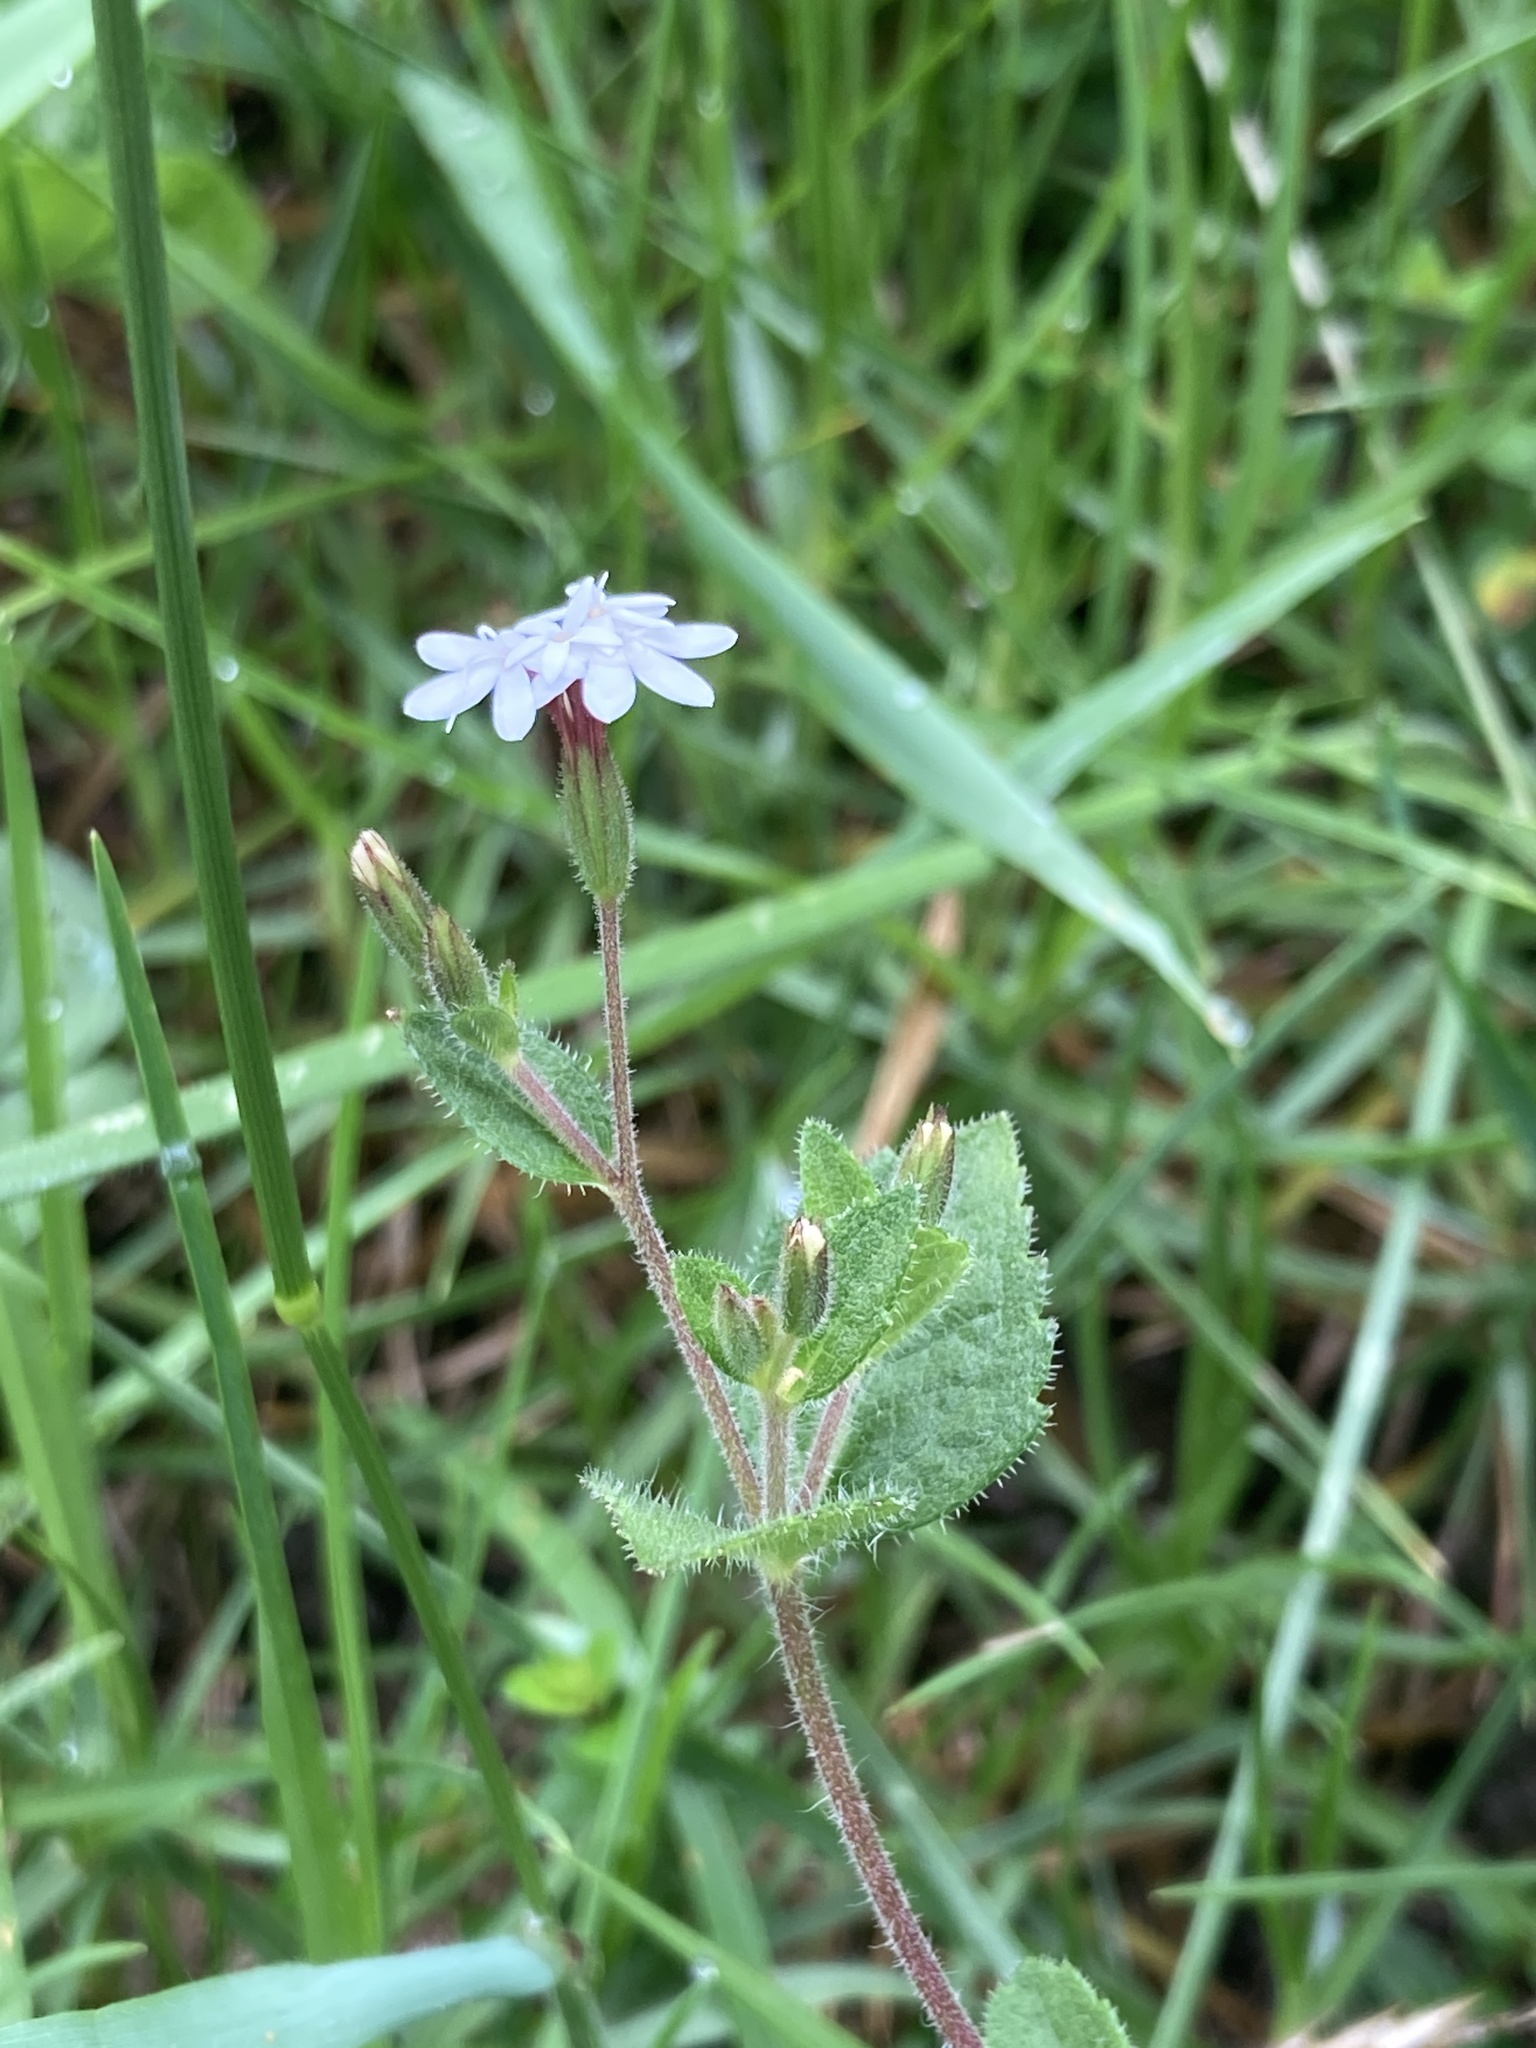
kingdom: Plantae
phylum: Tracheophyta
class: Magnoliopsida
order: Asterales
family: Asteraceae
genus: Stevia
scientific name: Stevia elatior
